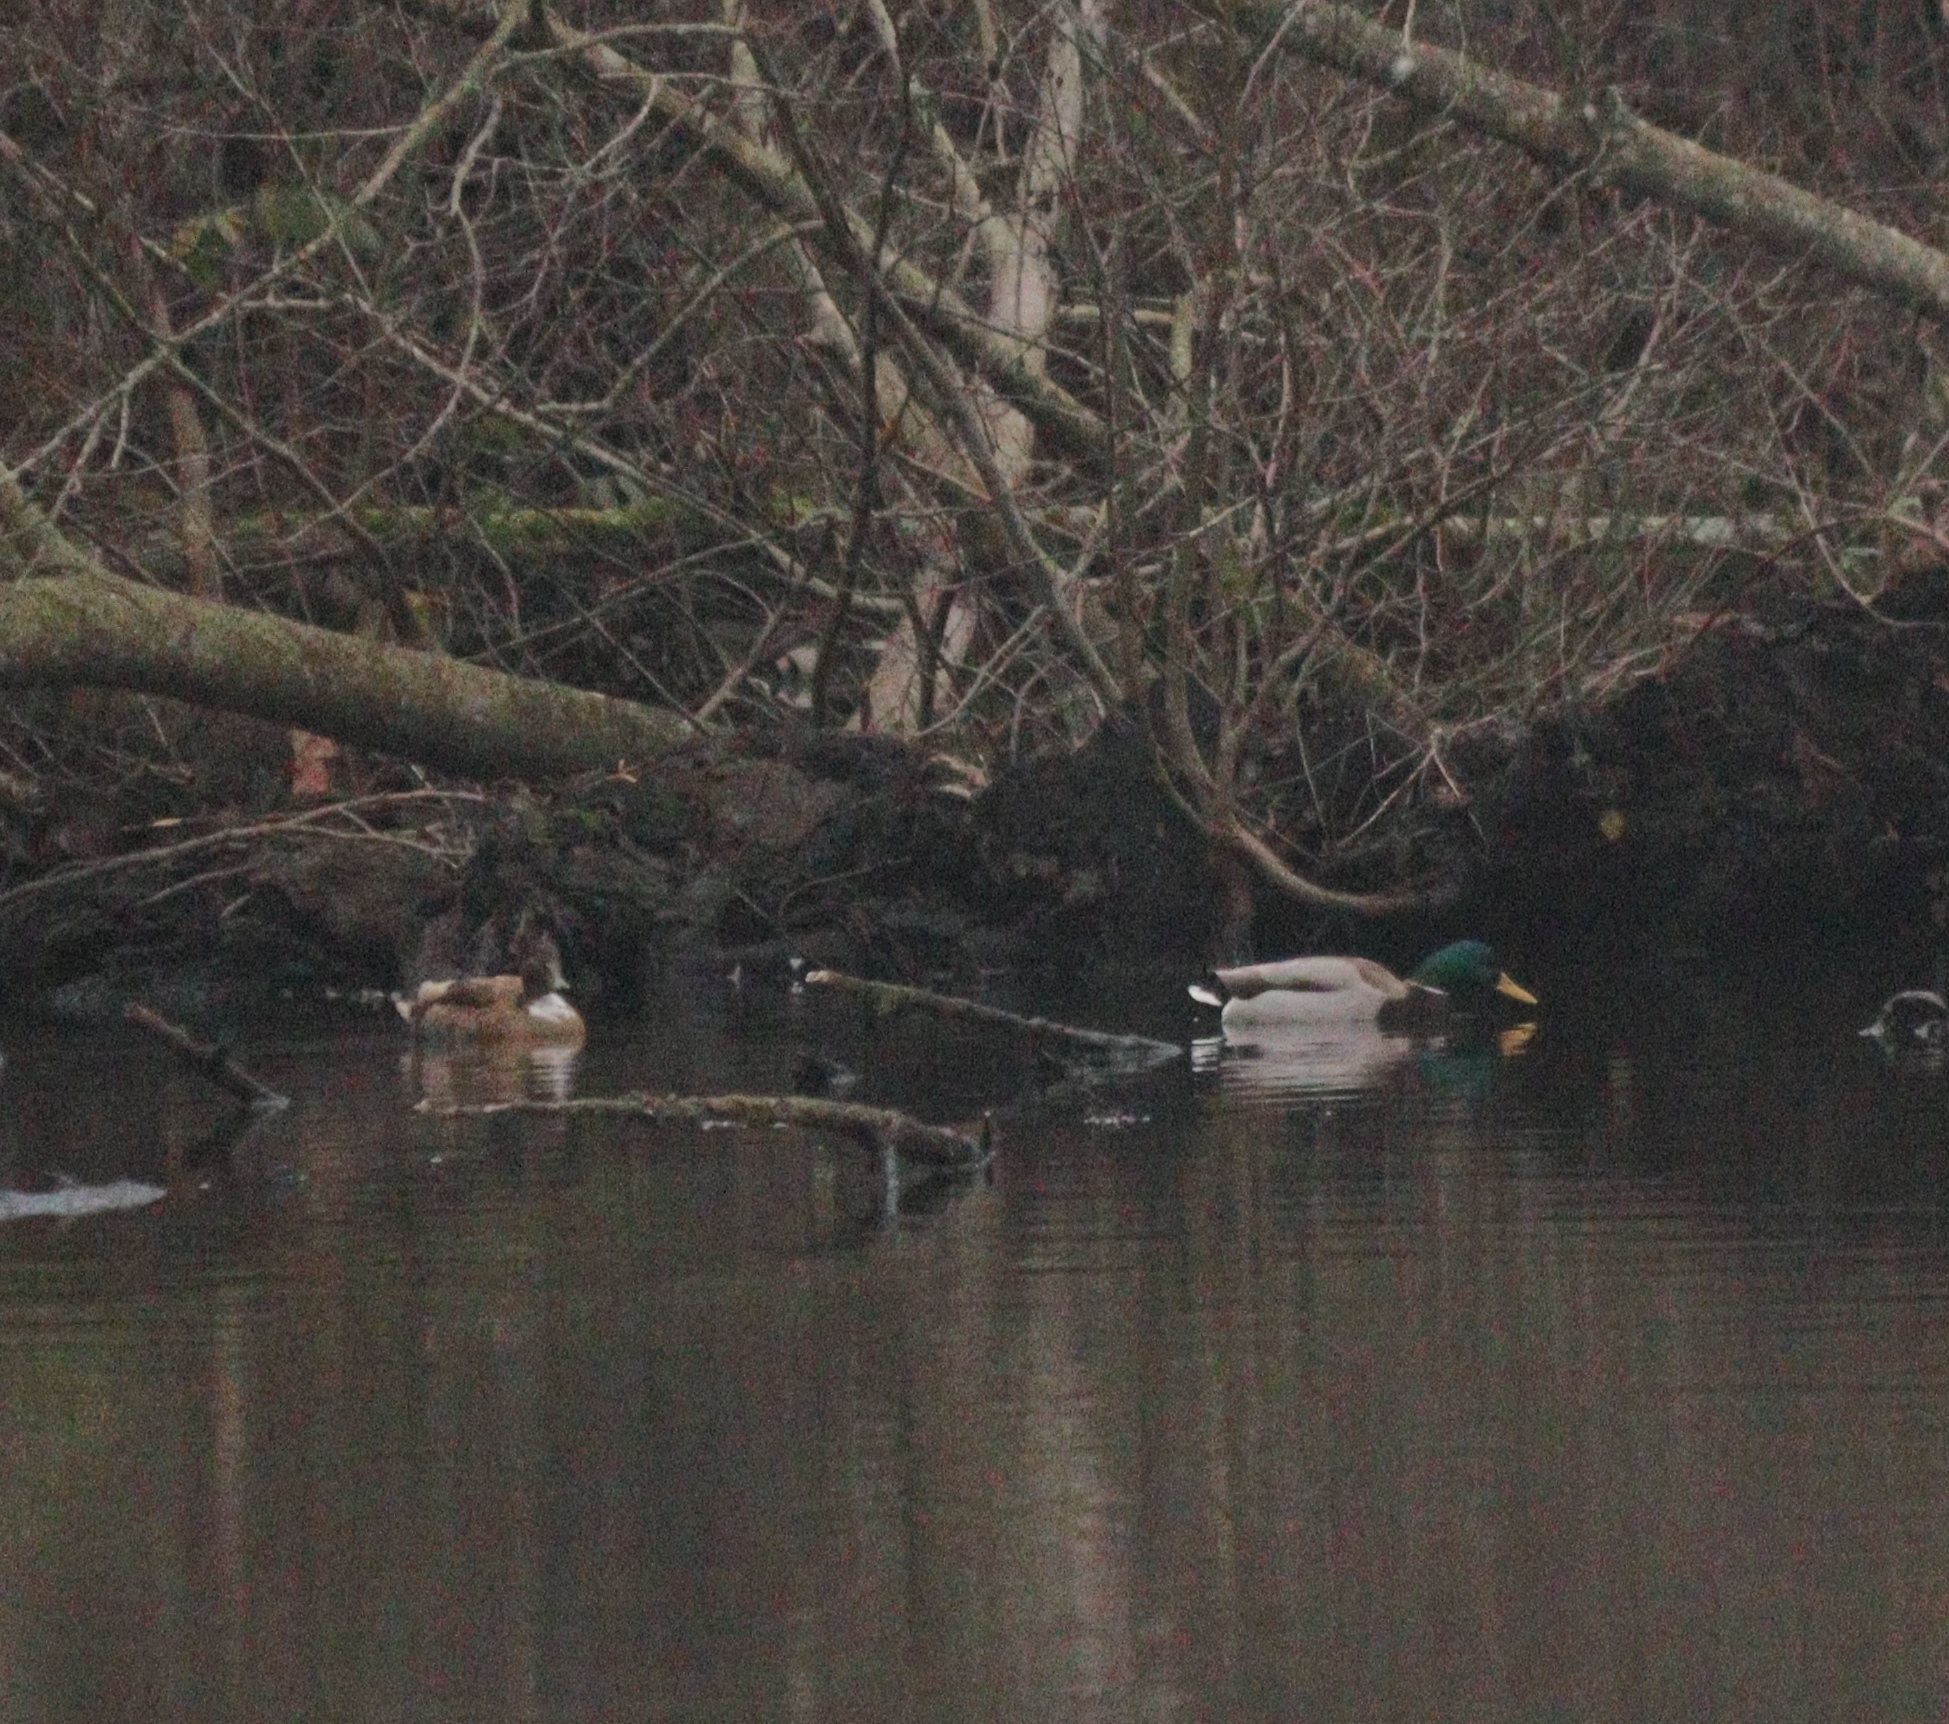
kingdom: Animalia
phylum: Chordata
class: Aves
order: Anseriformes
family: Anatidae
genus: Anas
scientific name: Anas platyrhynchos
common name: Mallard
